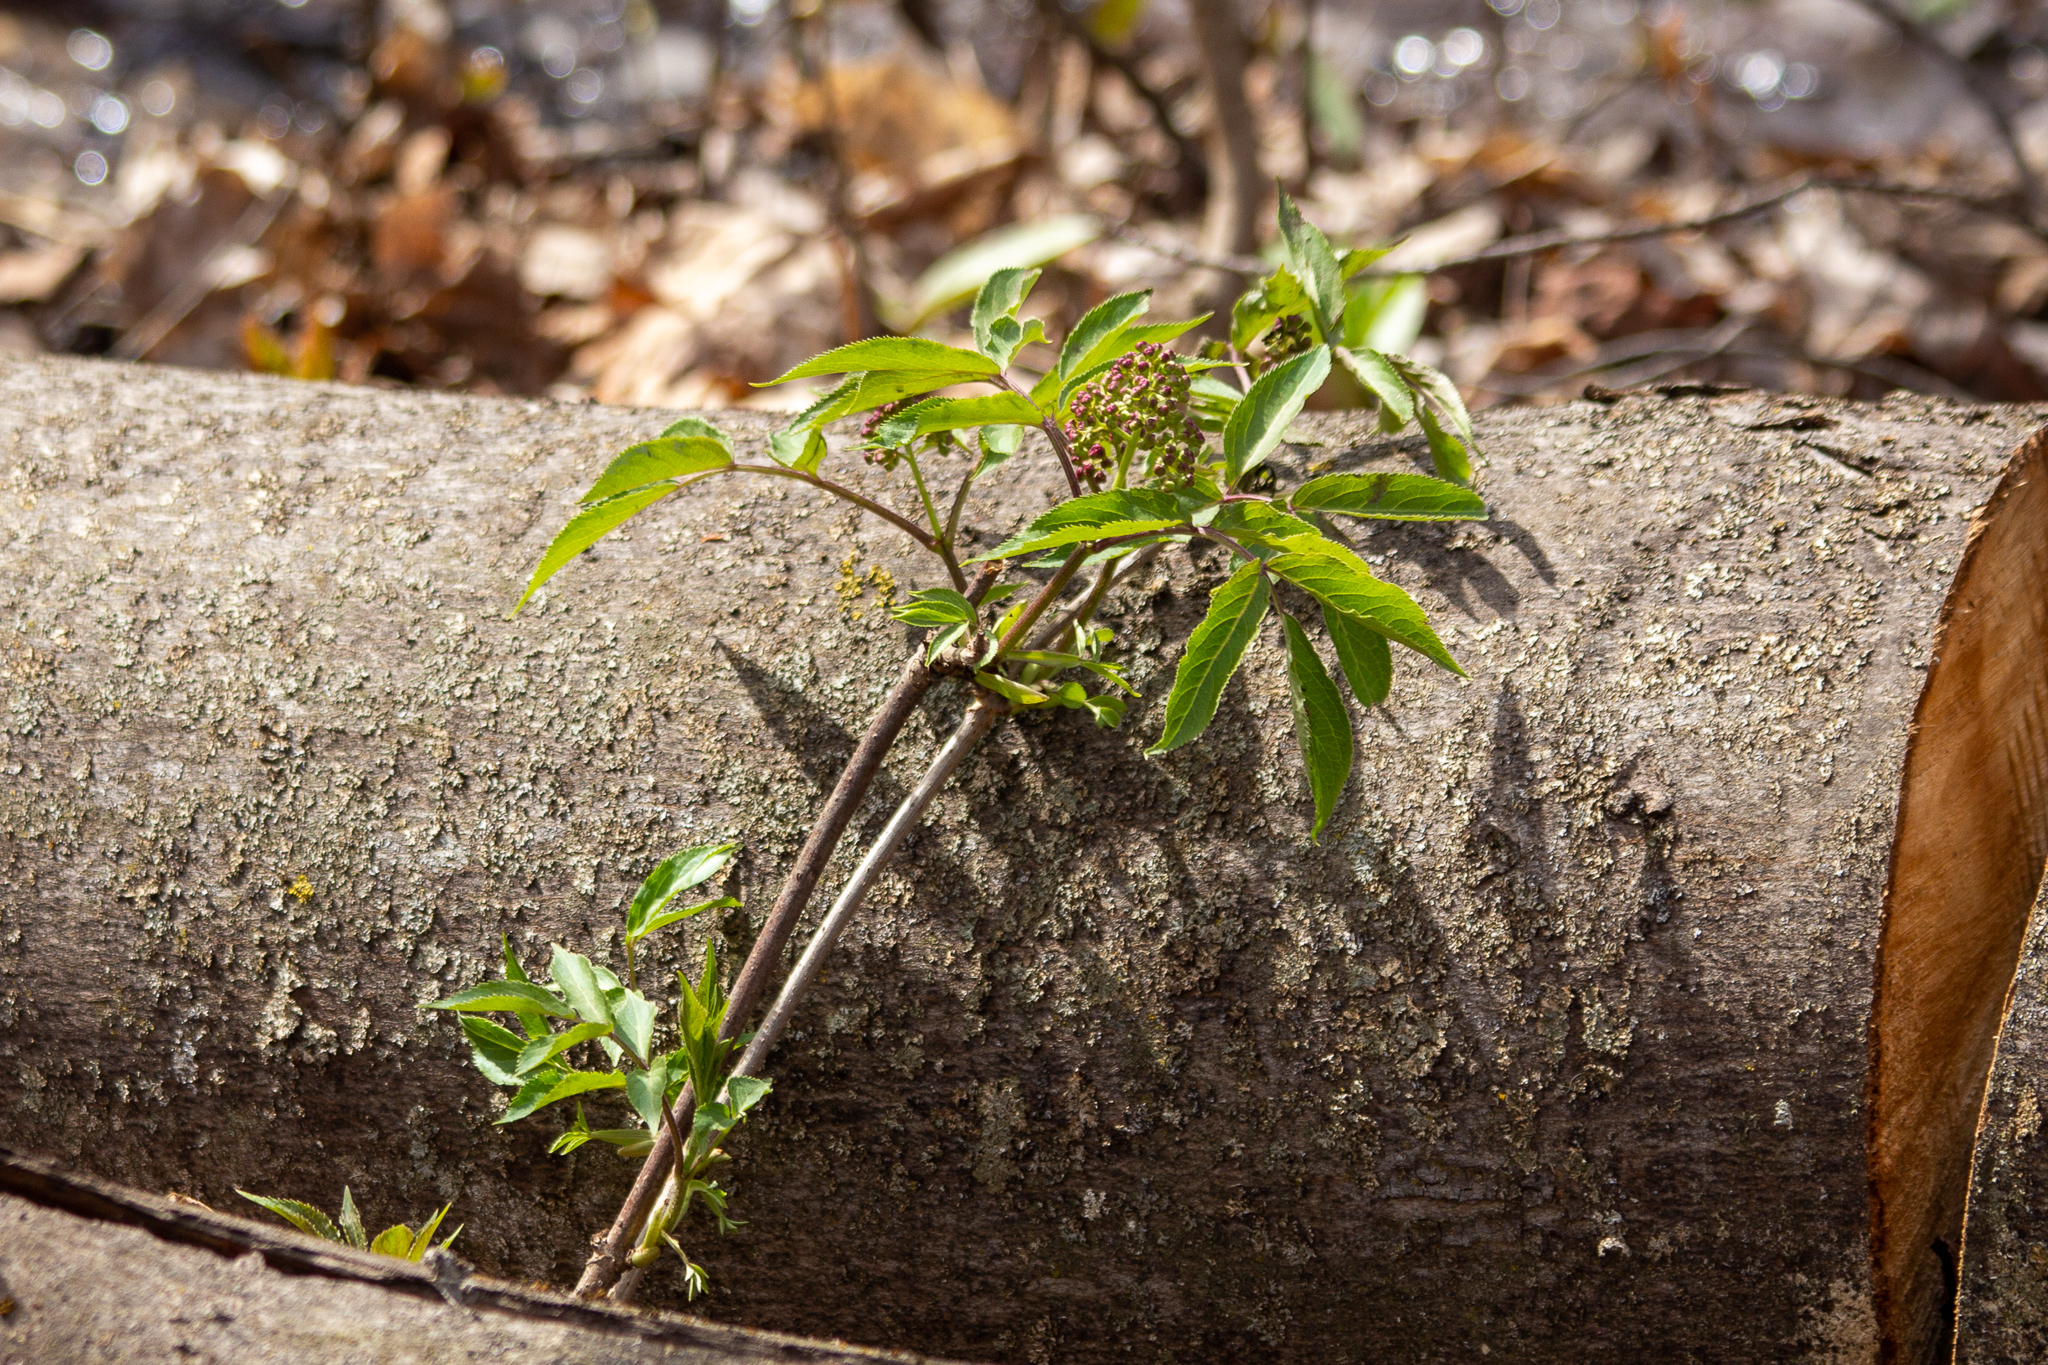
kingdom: Plantae
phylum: Tracheophyta
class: Magnoliopsida
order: Dipsacales
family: Viburnaceae
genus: Sambucus
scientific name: Sambucus racemosa
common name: Red-berried elder
